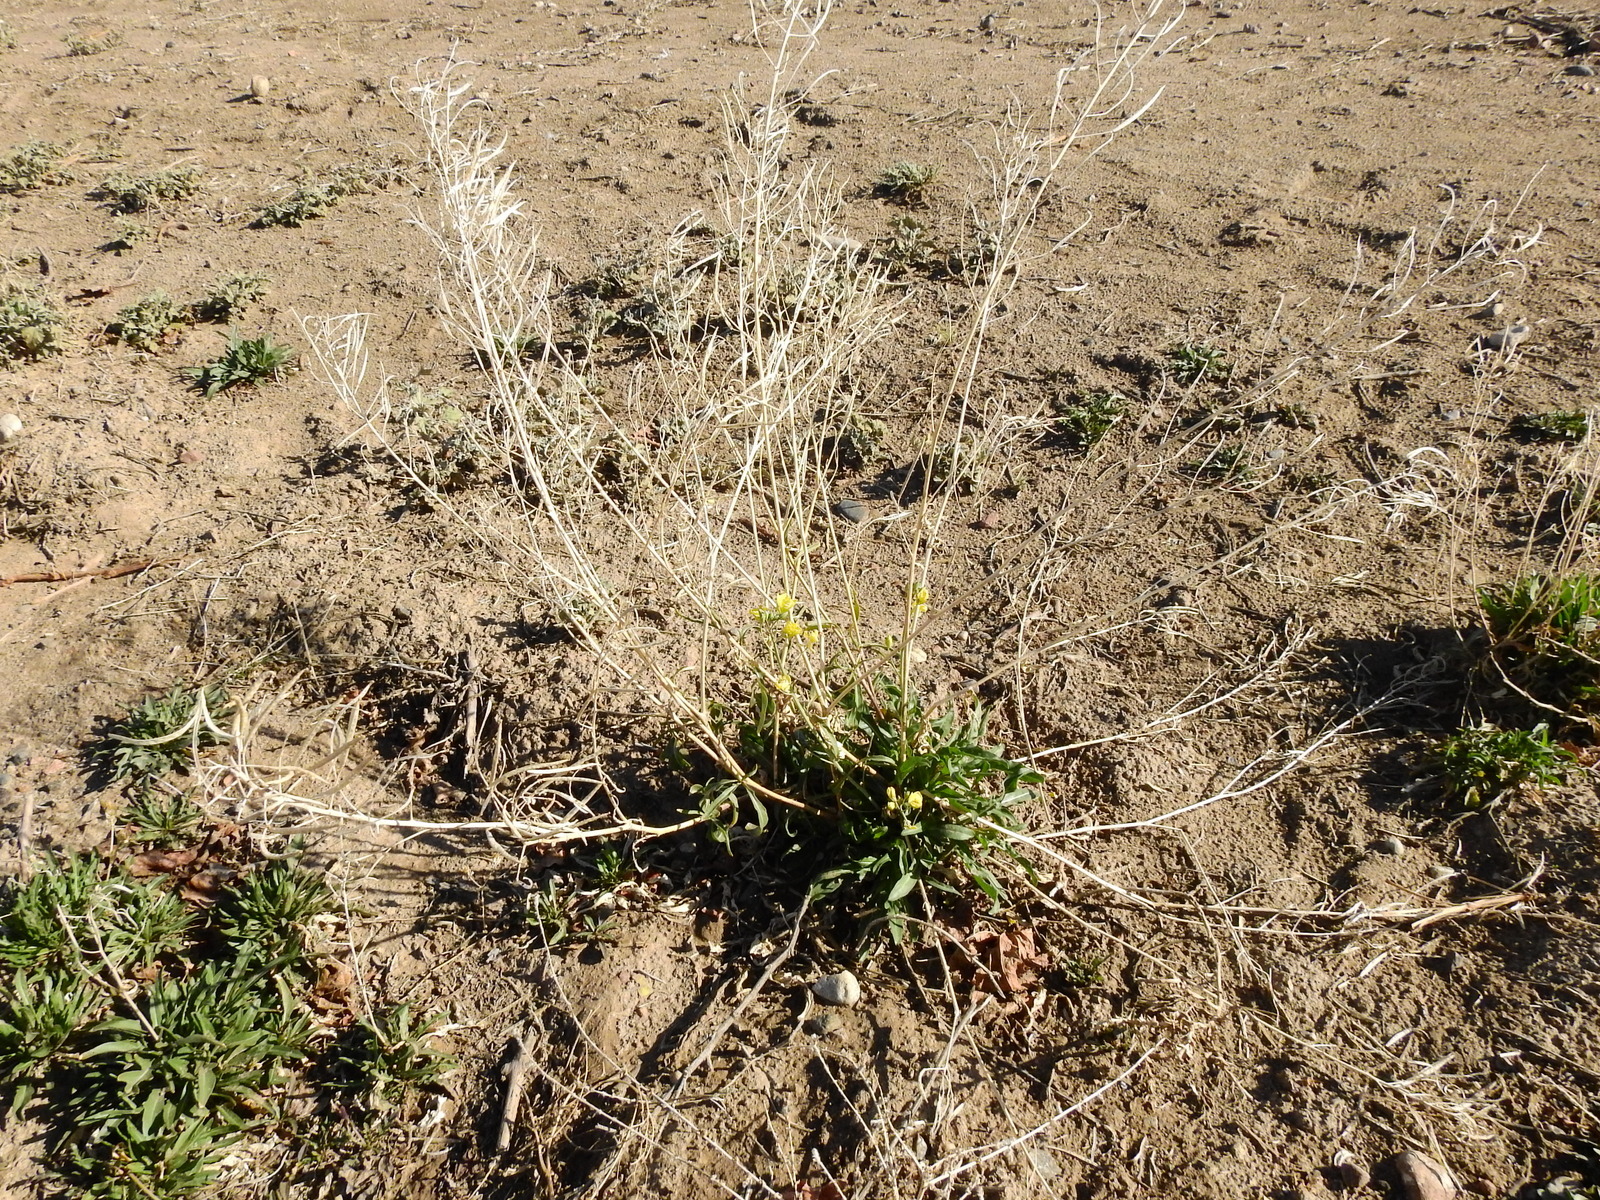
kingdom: Plantae
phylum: Tracheophyta
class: Magnoliopsida
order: Brassicales
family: Brassicaceae
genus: Diplotaxis
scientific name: Diplotaxis tenuifolia
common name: Perennial wall-rocket
